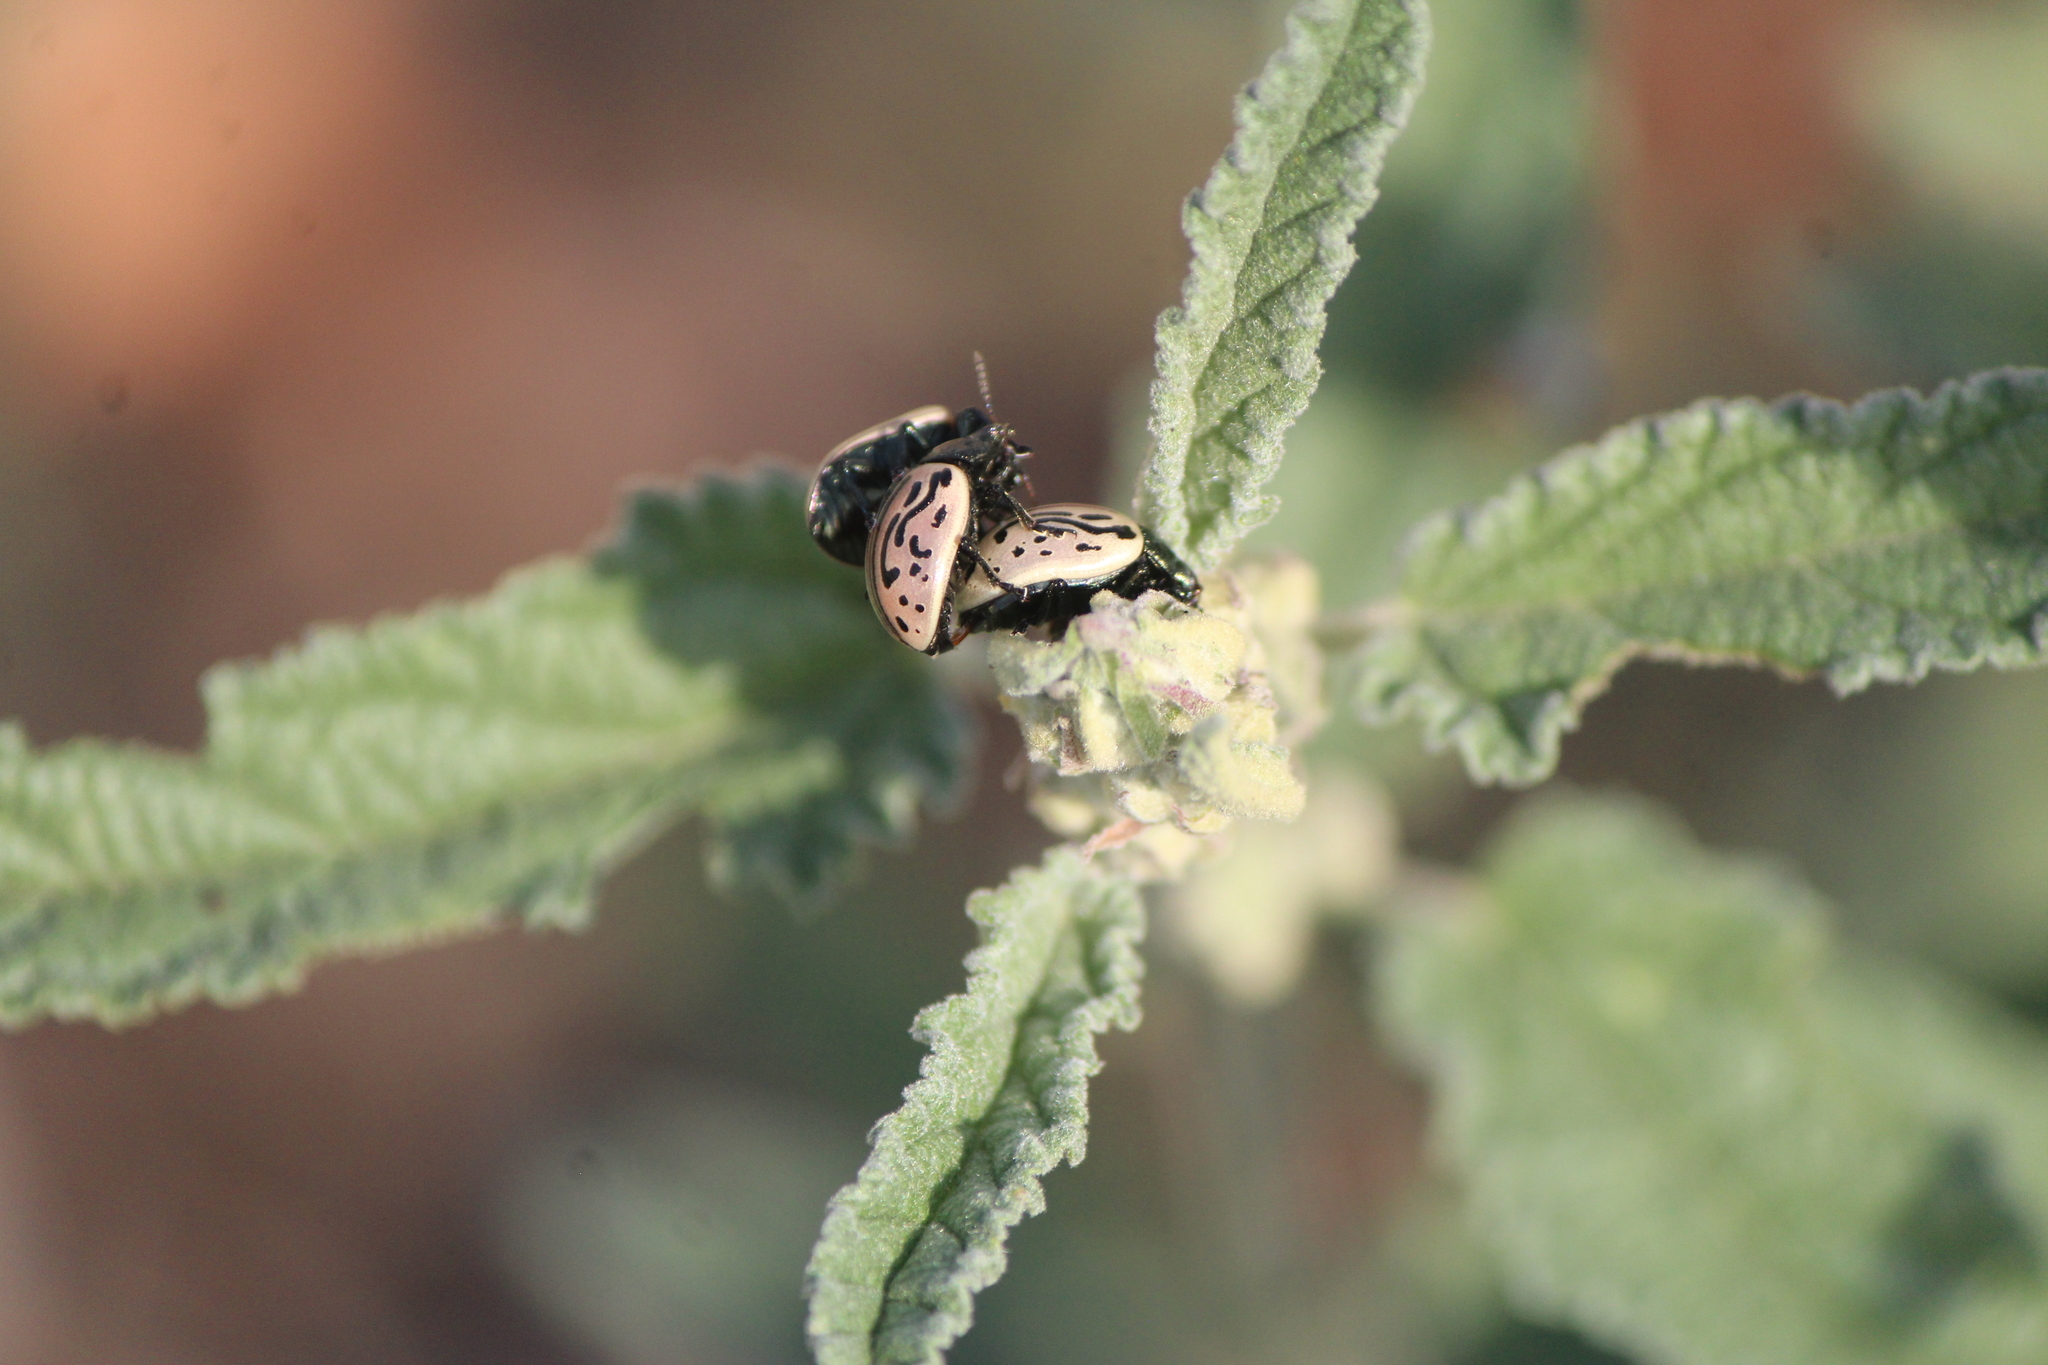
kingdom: Animalia
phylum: Arthropoda
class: Insecta
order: Coleoptera
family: Chrysomelidae
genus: Calligrapha
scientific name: Calligrapha dislocata
